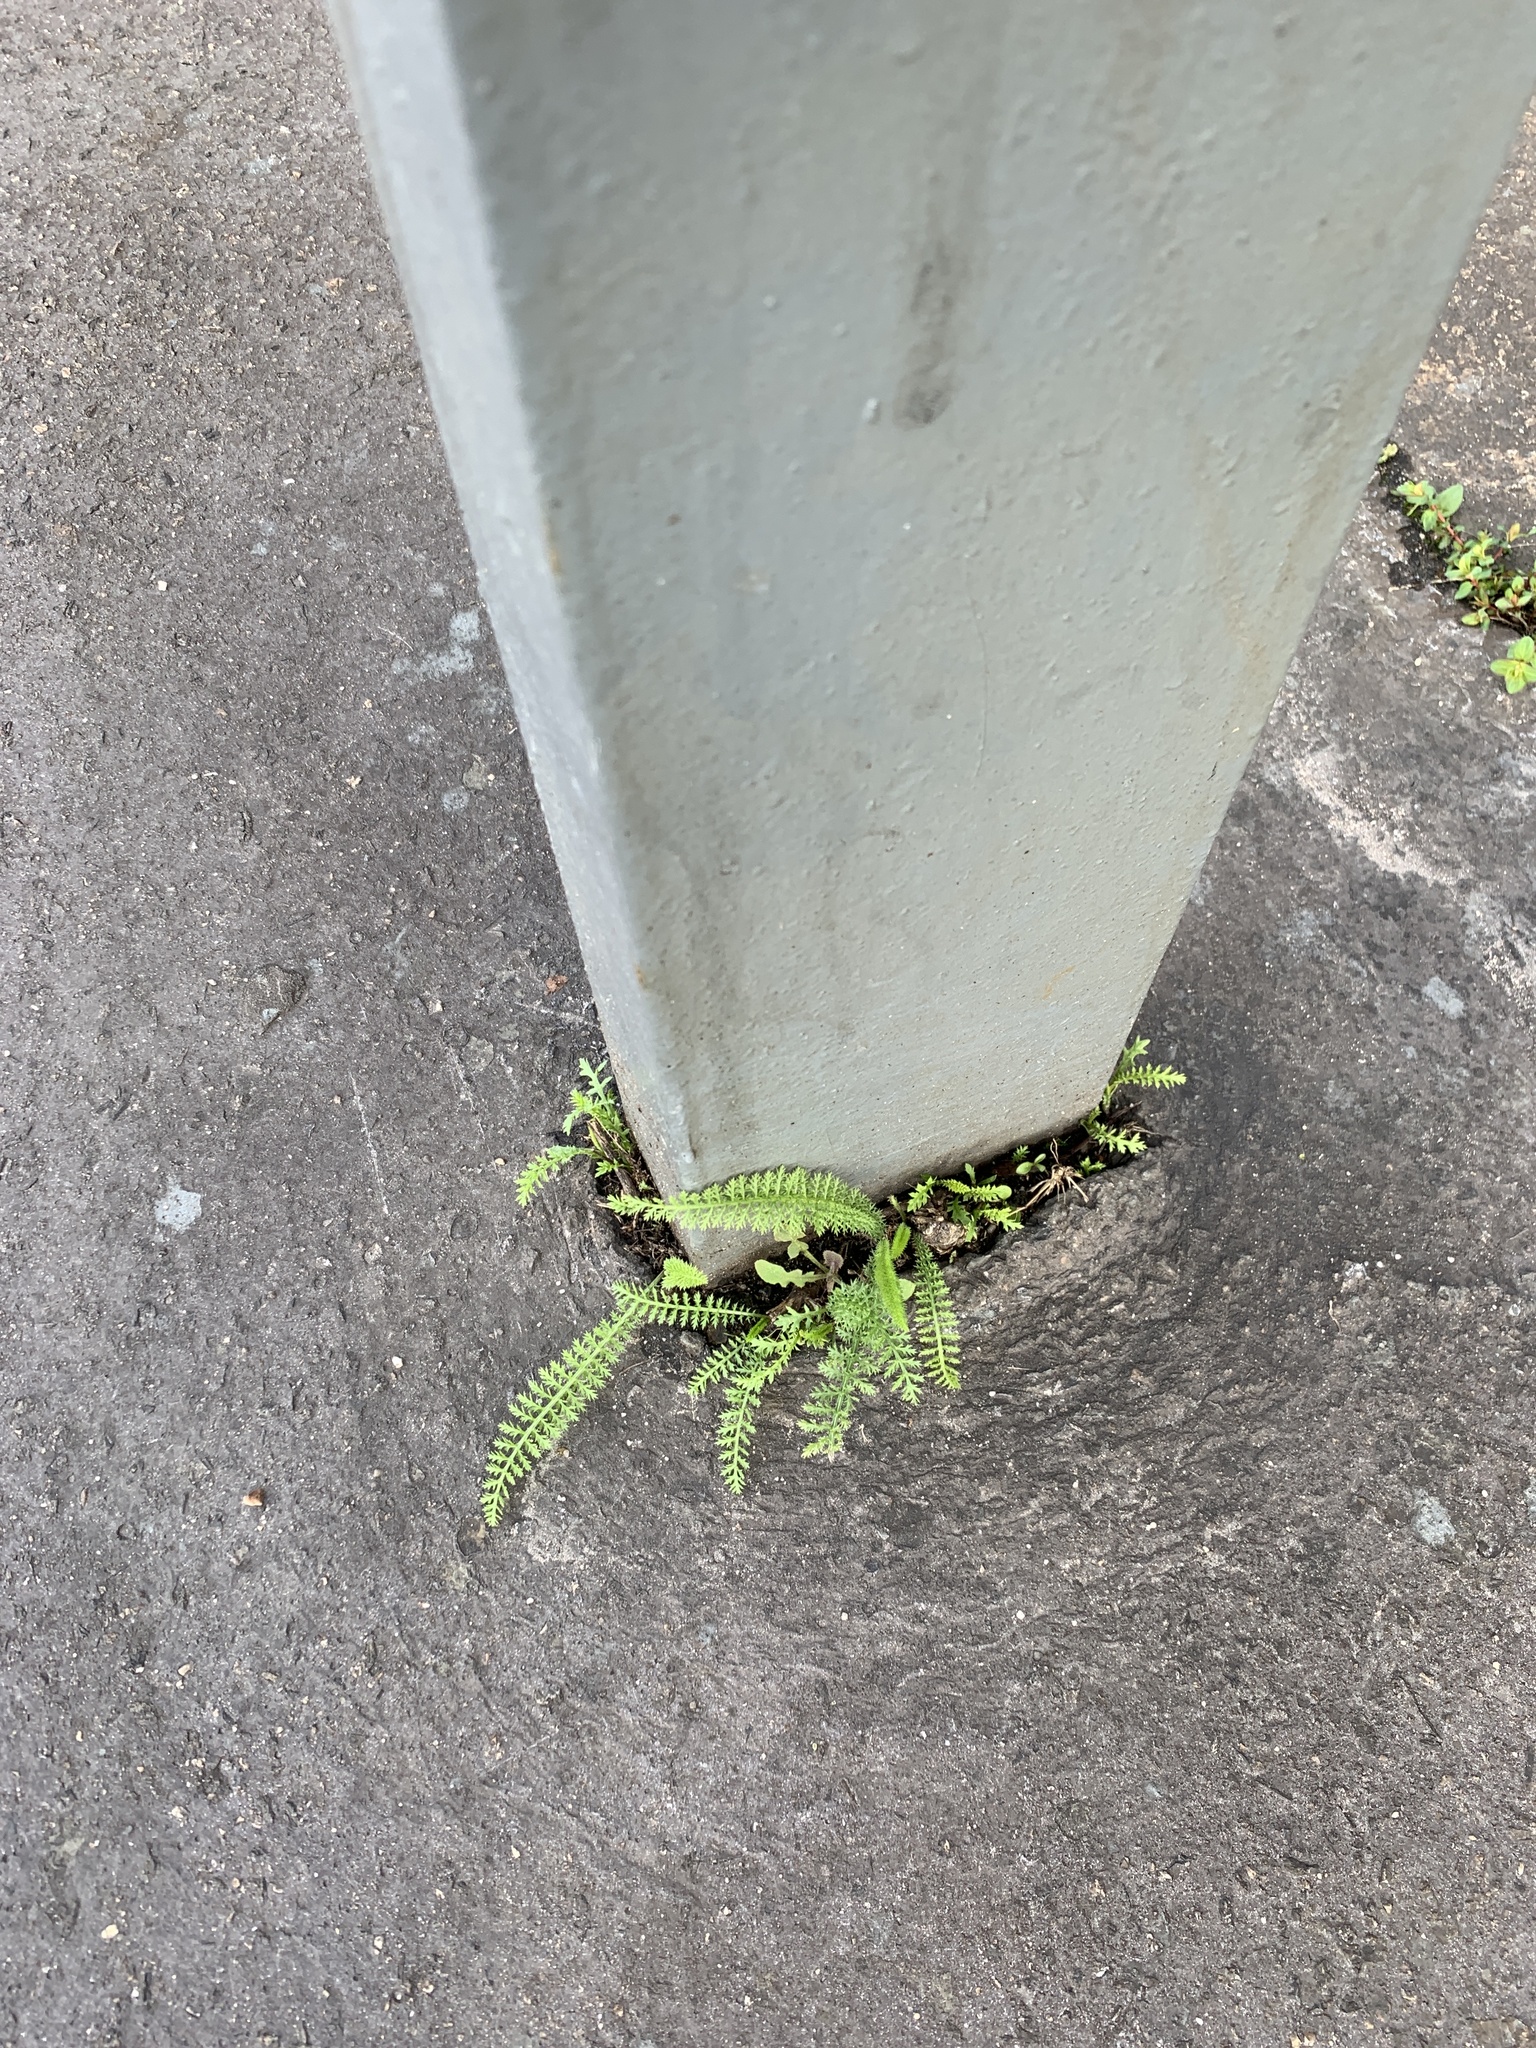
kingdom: Plantae
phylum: Tracheophyta
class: Magnoliopsida
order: Asterales
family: Asteraceae
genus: Achillea
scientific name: Achillea millefolium
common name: Yarrow
